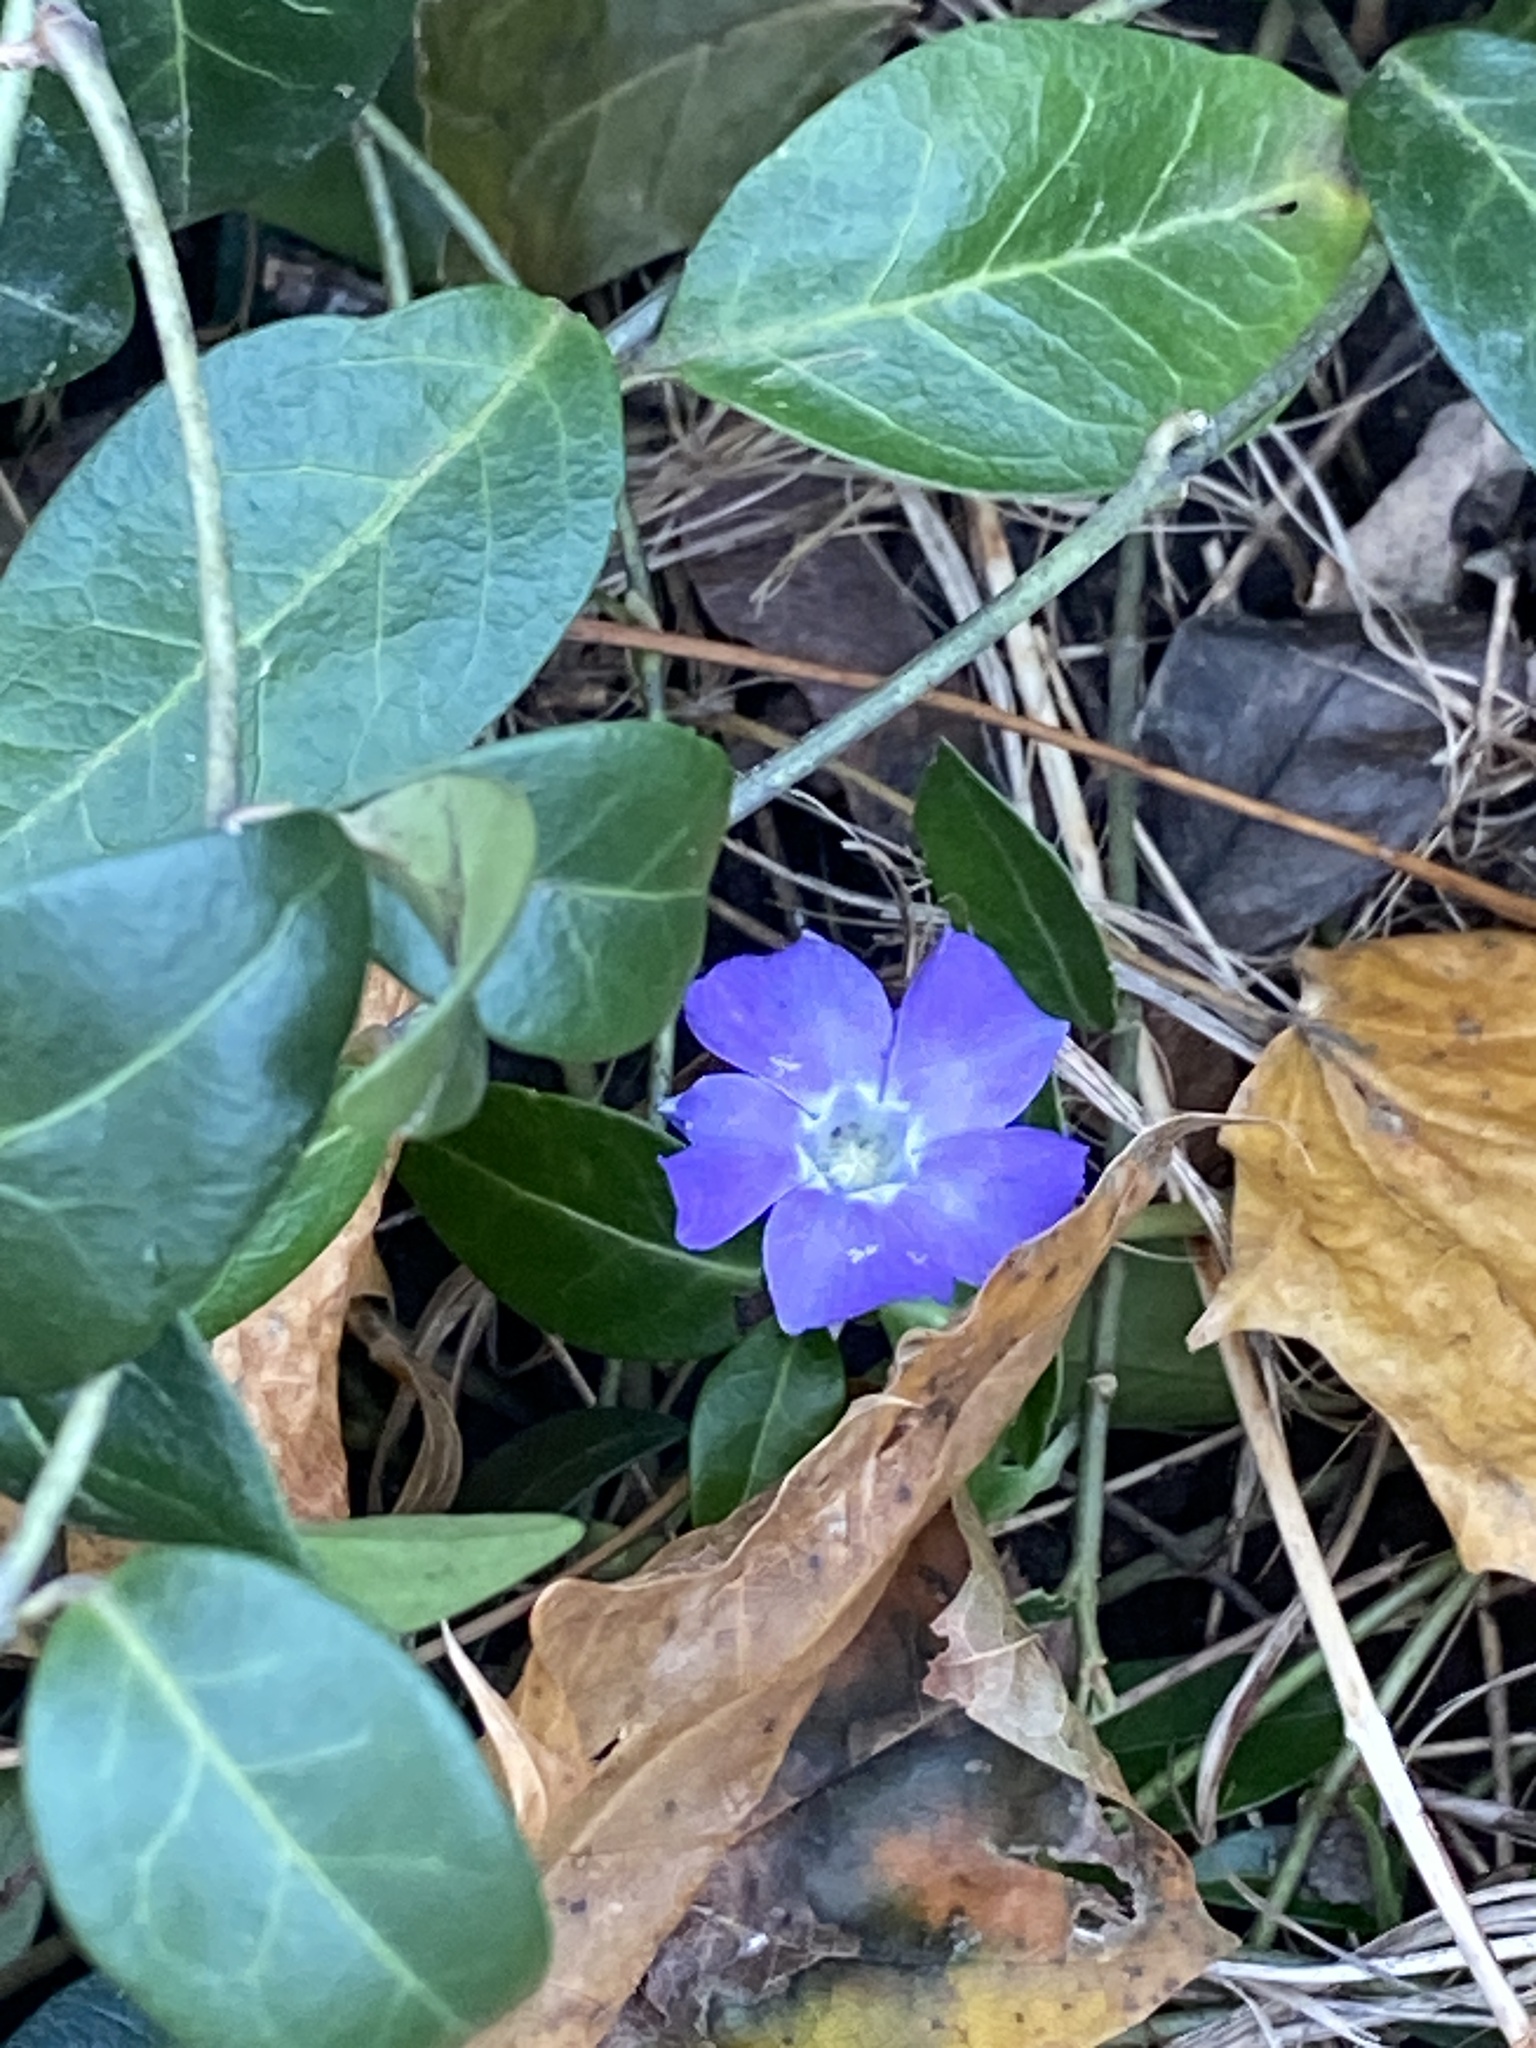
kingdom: Plantae
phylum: Tracheophyta
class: Magnoliopsida
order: Gentianales
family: Apocynaceae
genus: Vinca
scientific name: Vinca minor
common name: Lesser periwinkle
